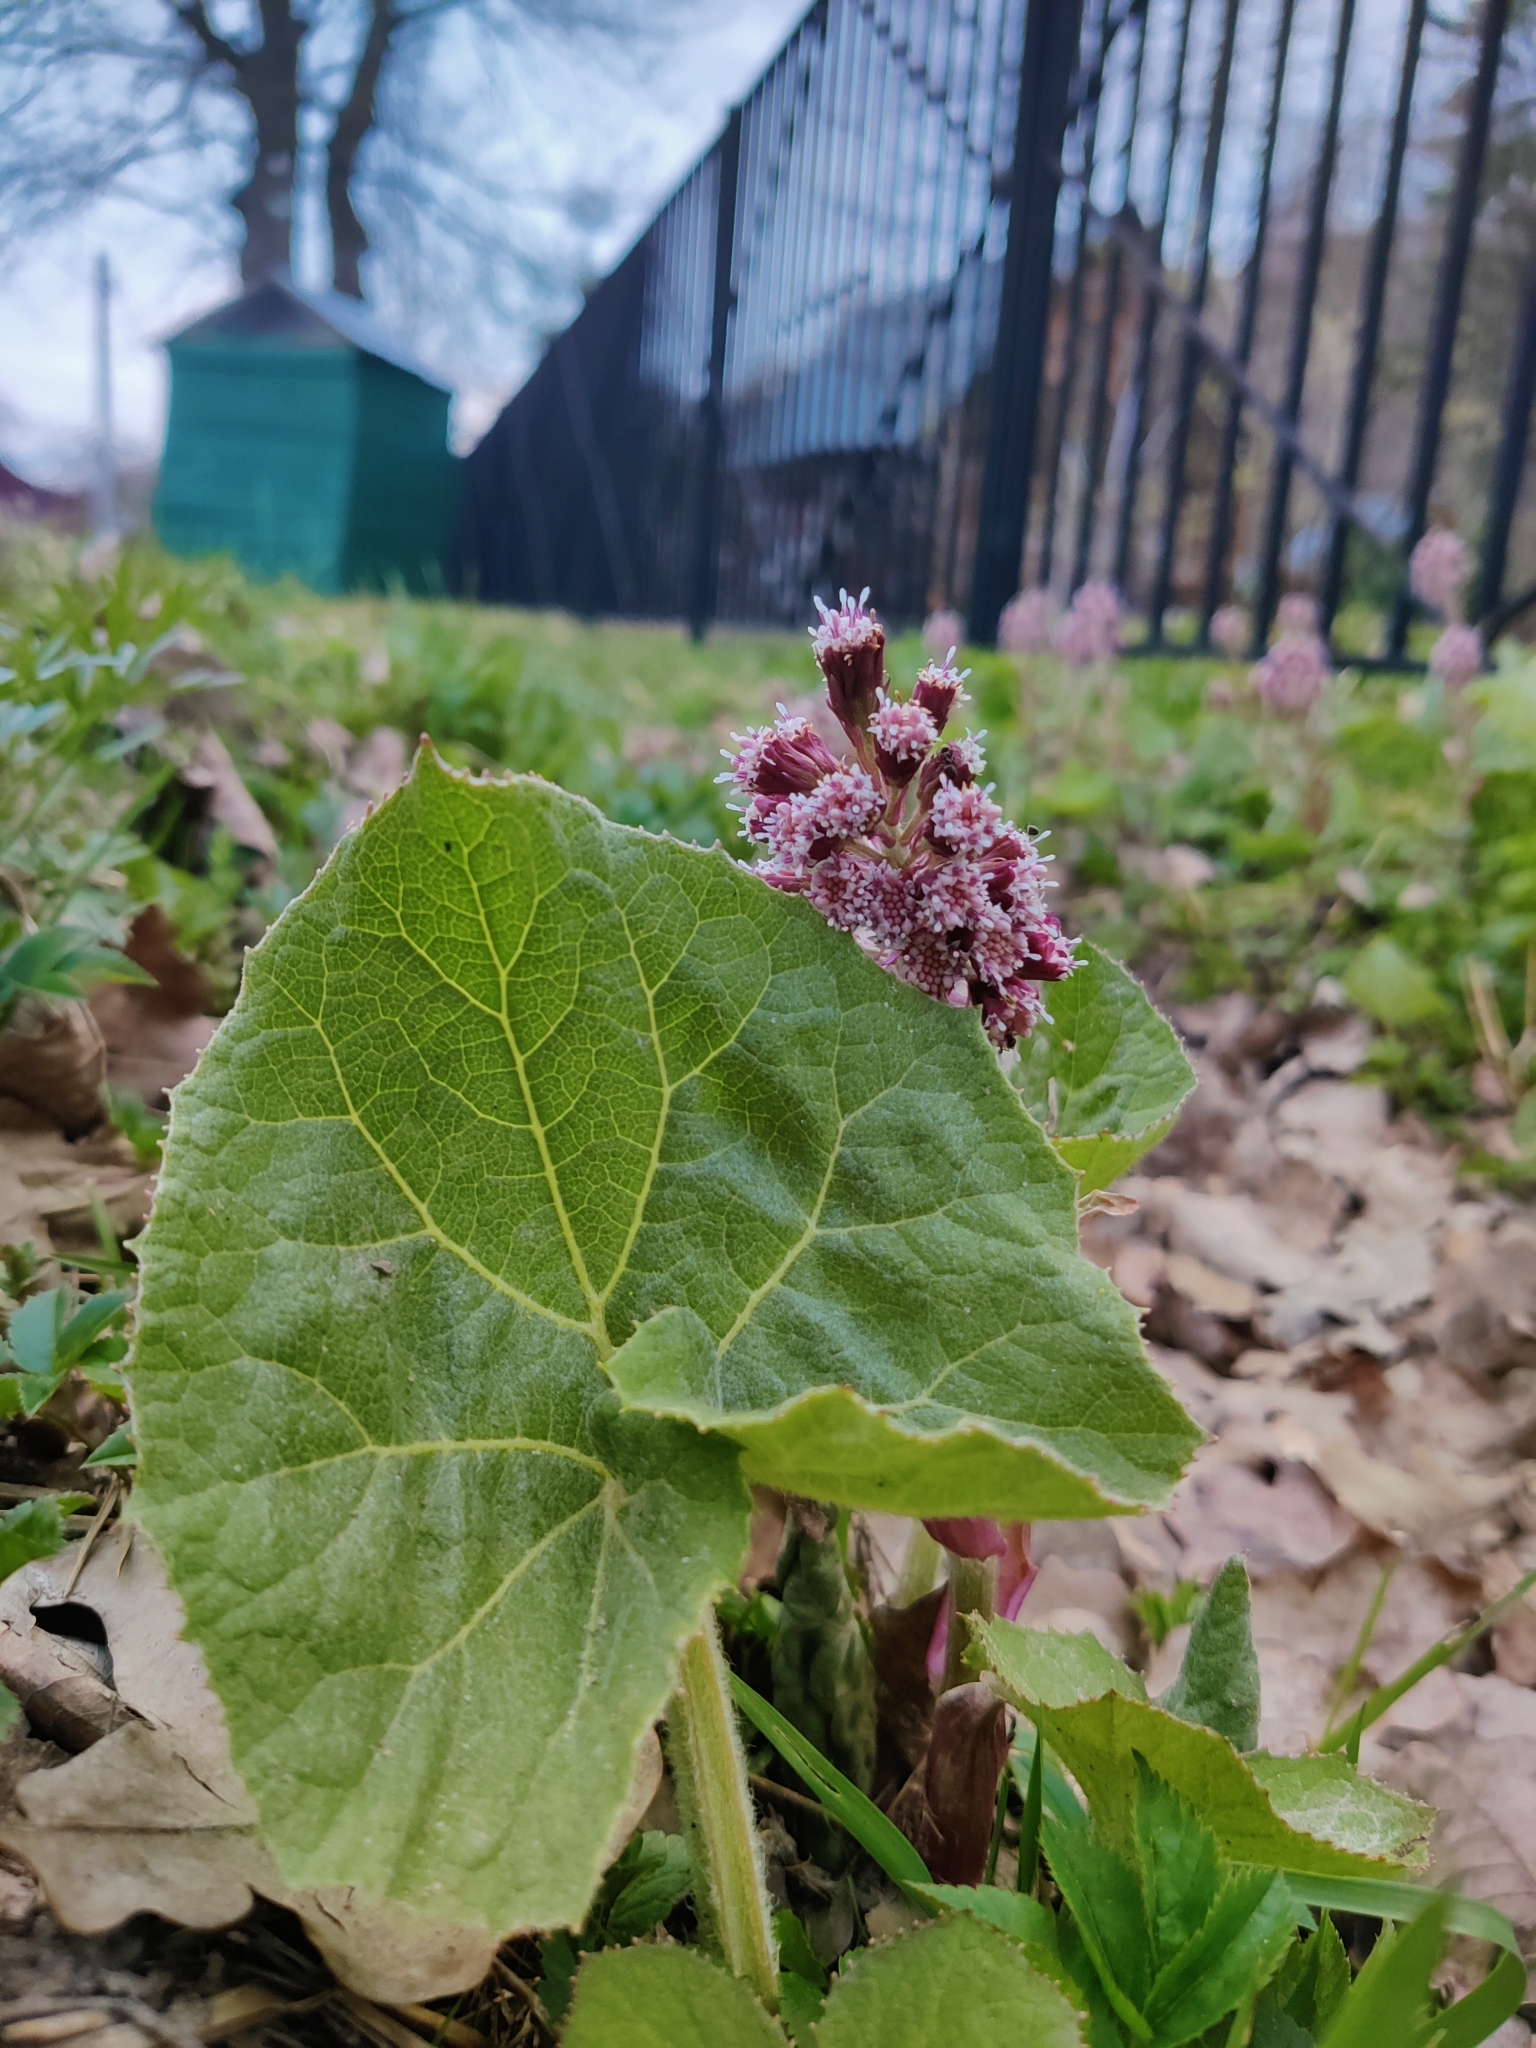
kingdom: Plantae
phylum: Tracheophyta
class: Magnoliopsida
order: Asterales
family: Asteraceae
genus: Petasites
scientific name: Petasites hybridus
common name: Butterbur
